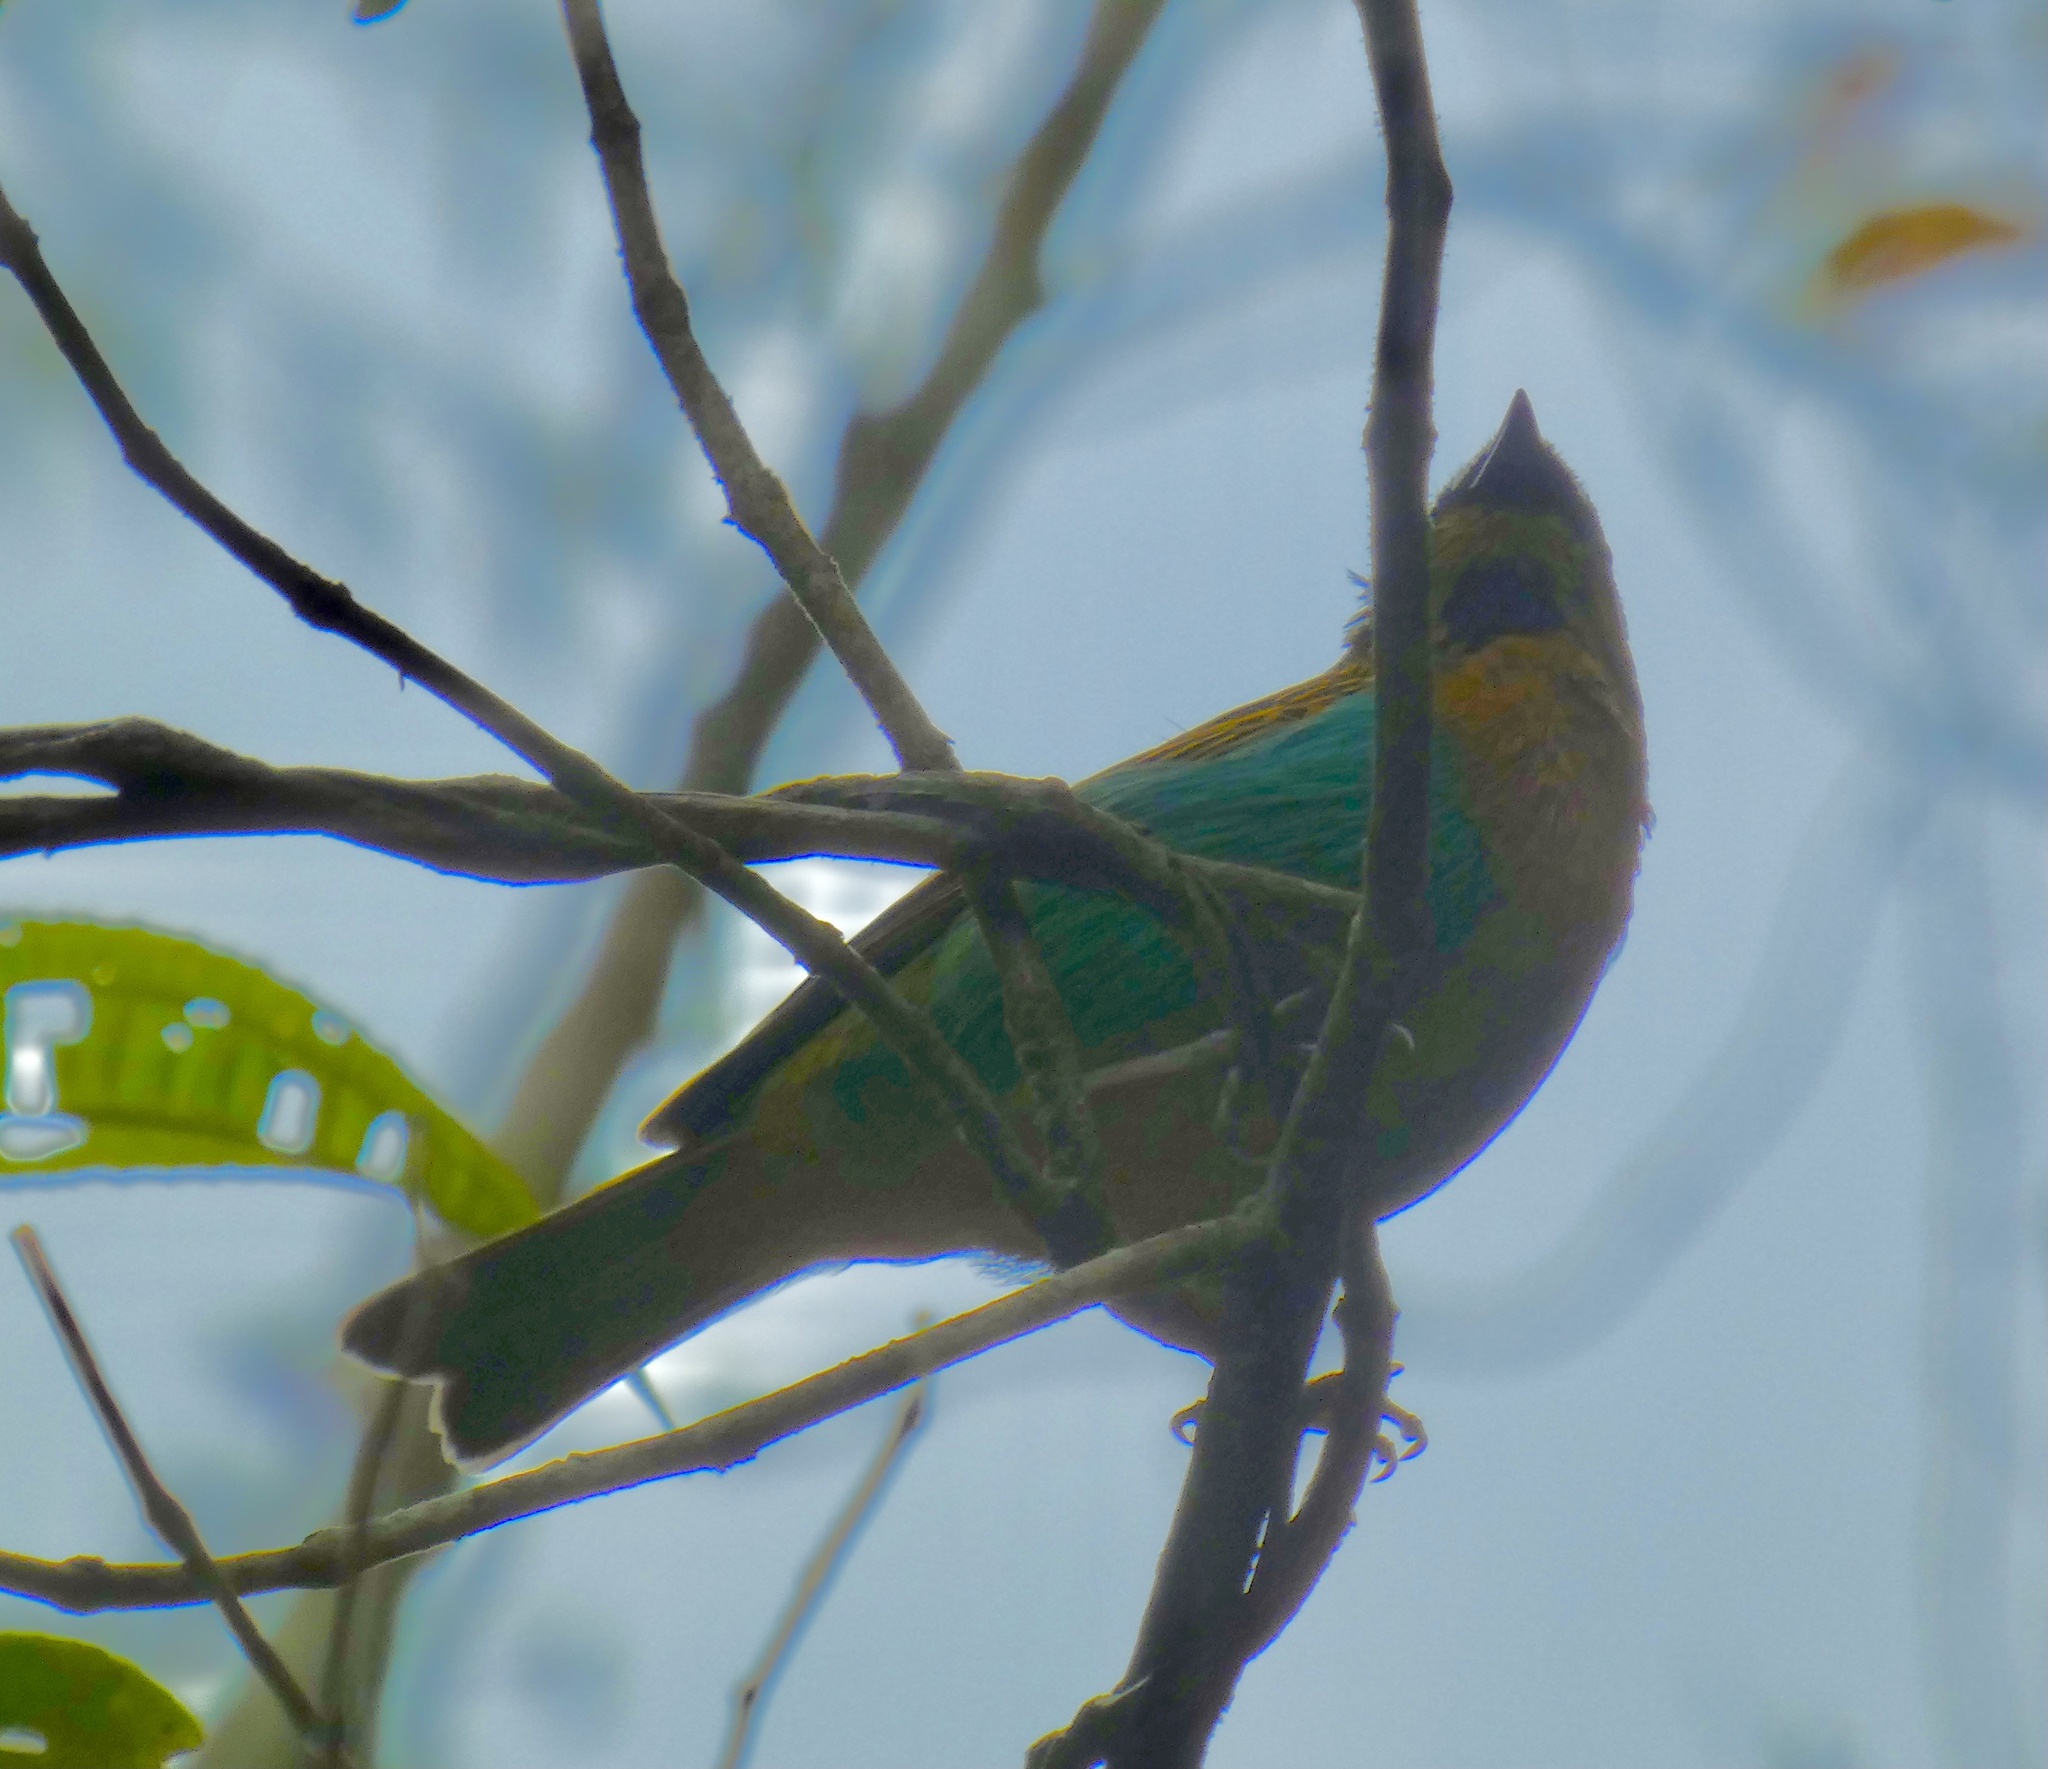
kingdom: Animalia
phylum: Chordata
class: Aves
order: Passeriformes
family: Thraupidae
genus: Tangara
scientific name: Tangara desmaresti
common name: Brassy-breasted tanager
